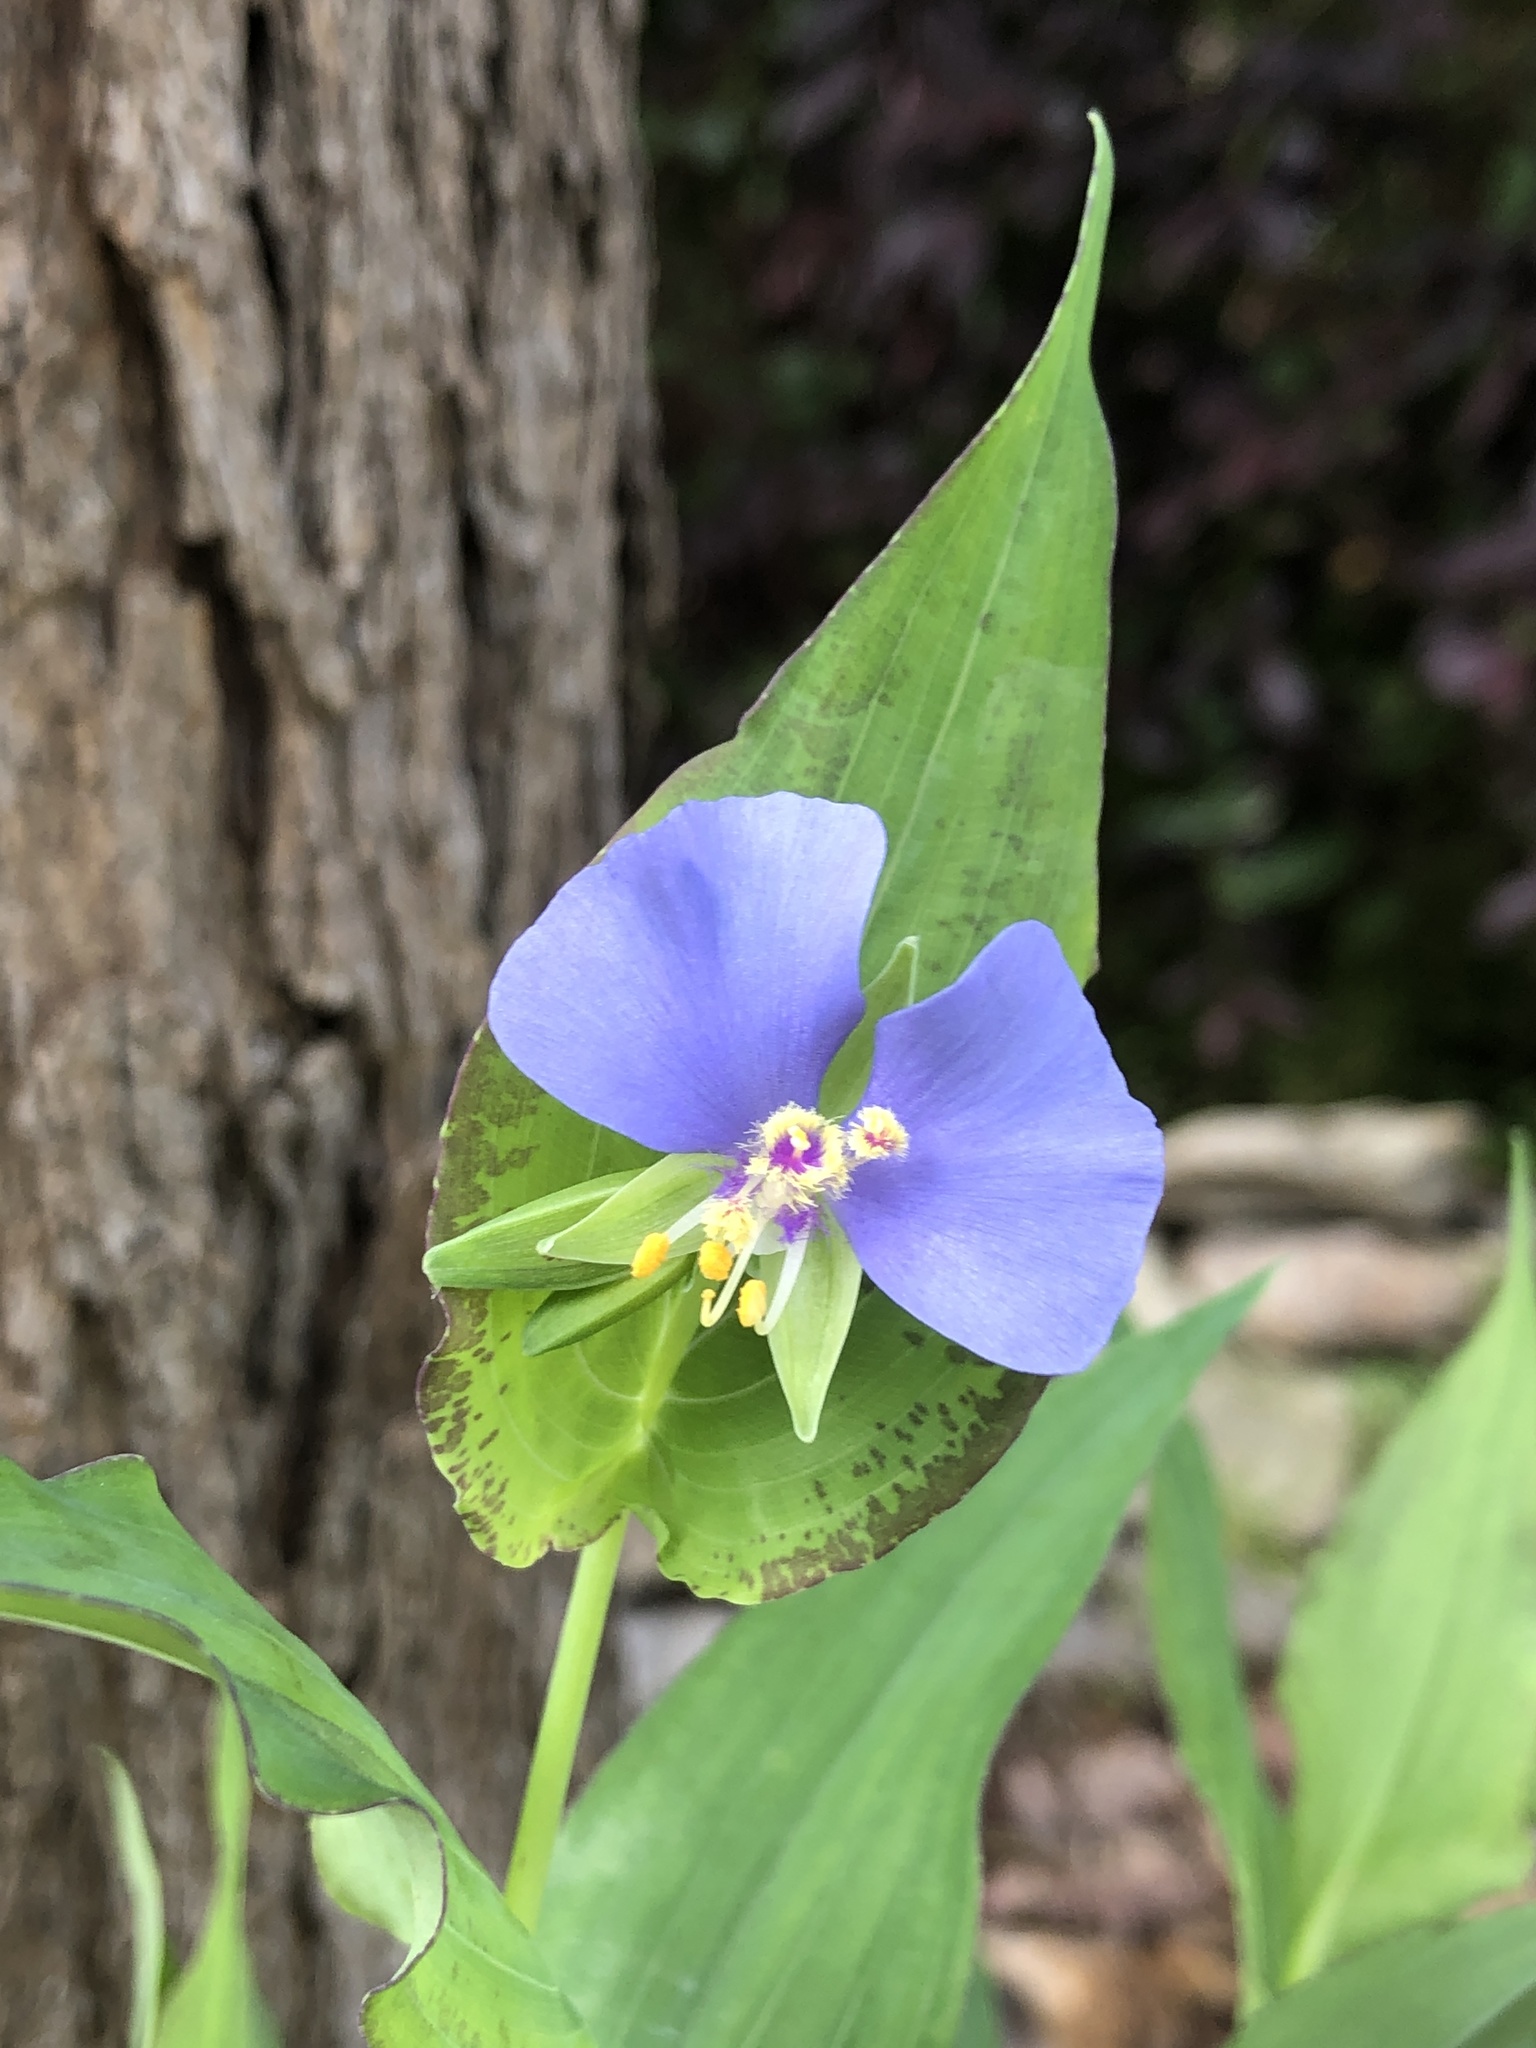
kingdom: Plantae
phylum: Tracheophyta
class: Liliopsida
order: Commelinales
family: Commelinaceae
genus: Tinantia
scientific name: Tinantia anomala
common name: False dayflower
